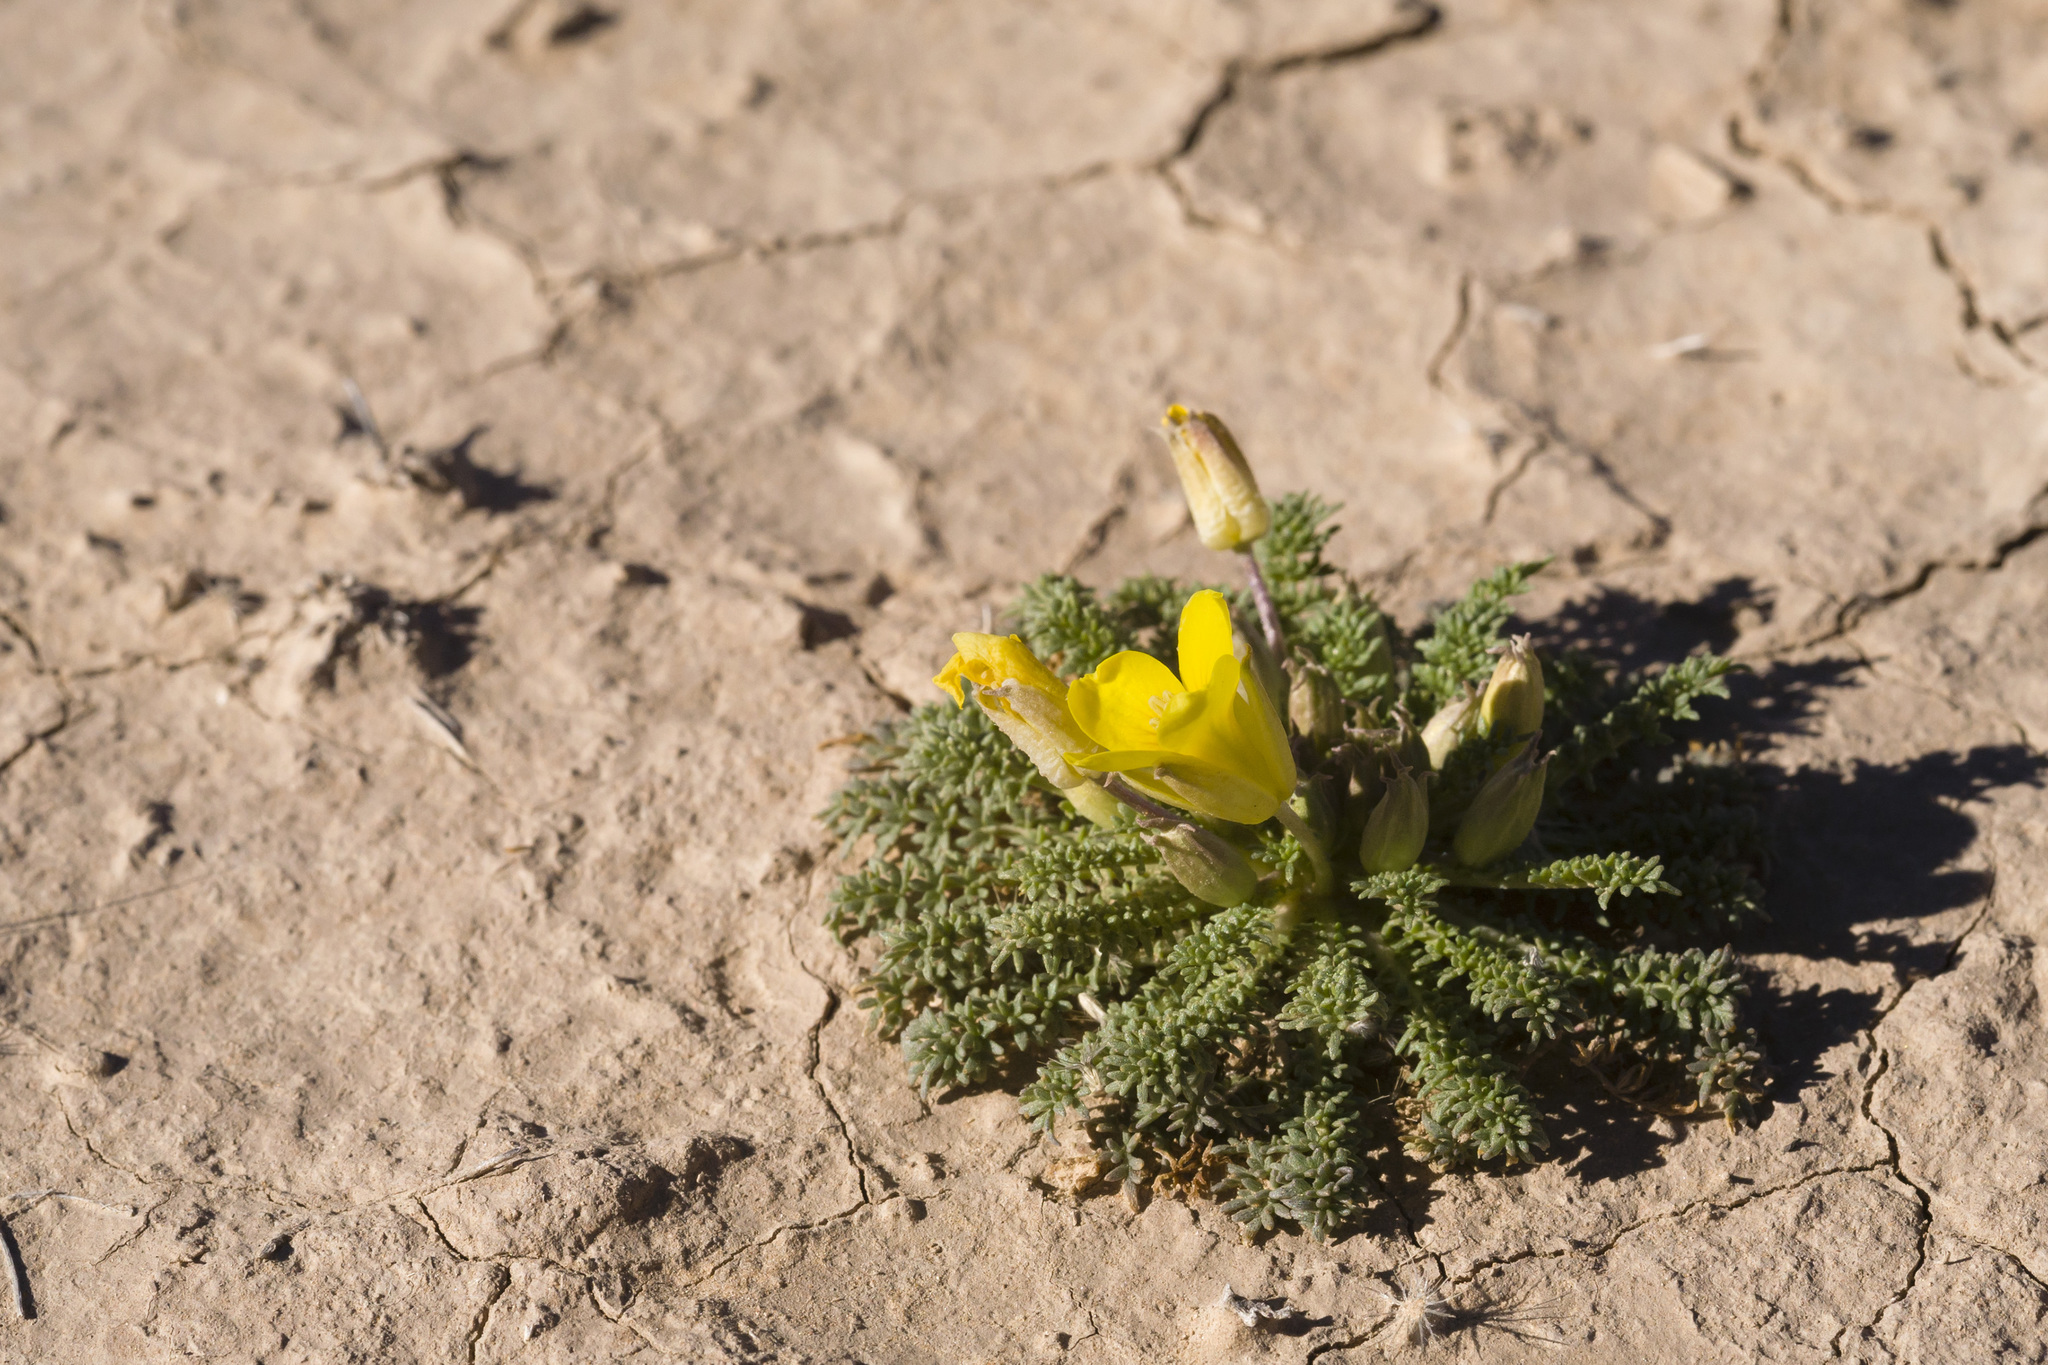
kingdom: Plantae
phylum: Tracheophyta
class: Magnoliopsida
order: Brassicales
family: Brassicaceae
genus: Selenia
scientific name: Selenia dissecta
